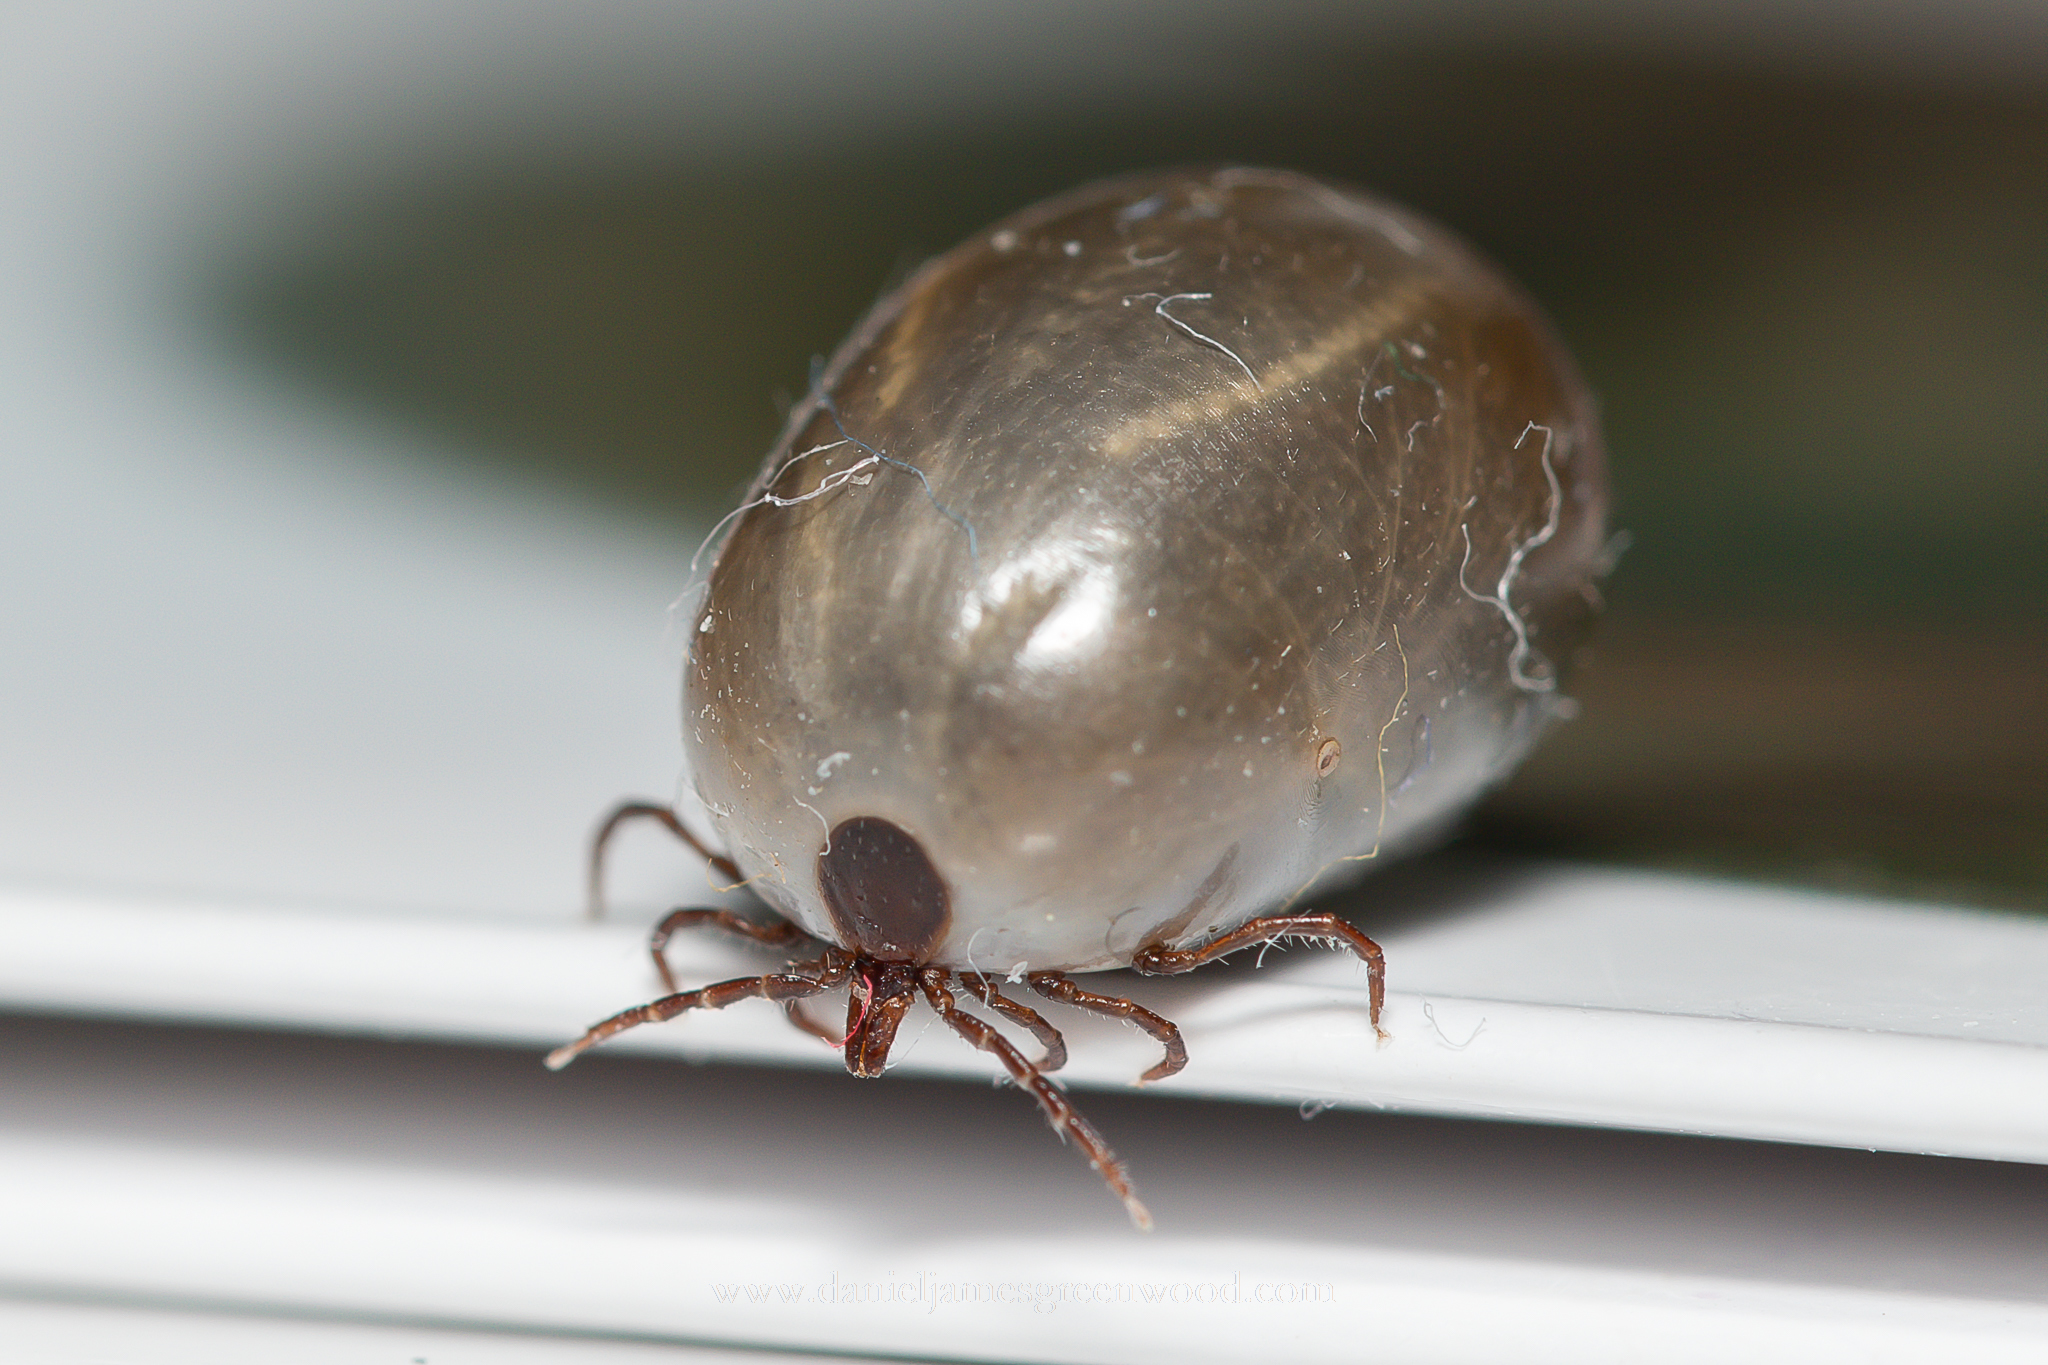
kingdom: Animalia
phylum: Arthropoda
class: Arachnida
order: Ixodida
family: Ixodidae
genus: Ixodes
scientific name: Ixodes ricinus
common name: Castor bean tick
